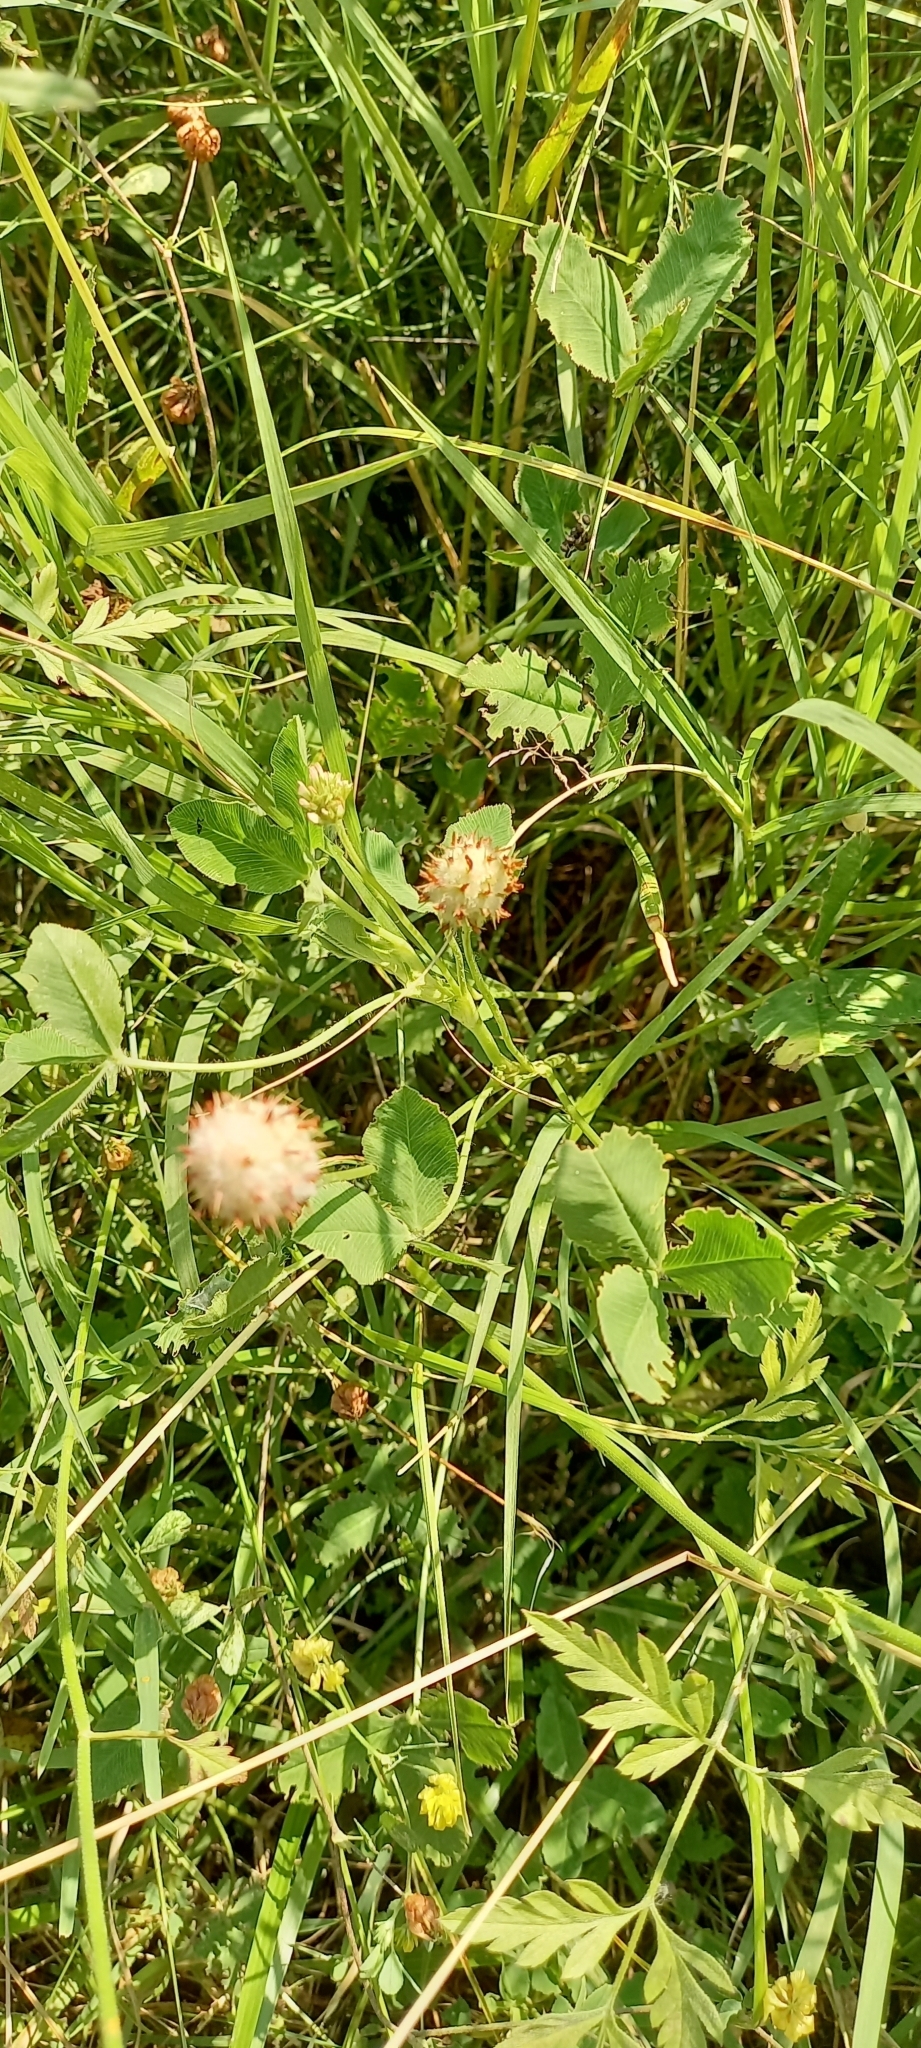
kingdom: Plantae
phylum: Tracheophyta
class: Magnoliopsida
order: Fabales
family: Fabaceae
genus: Trifolium
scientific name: Trifolium fragiferum
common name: Strawberry clover
